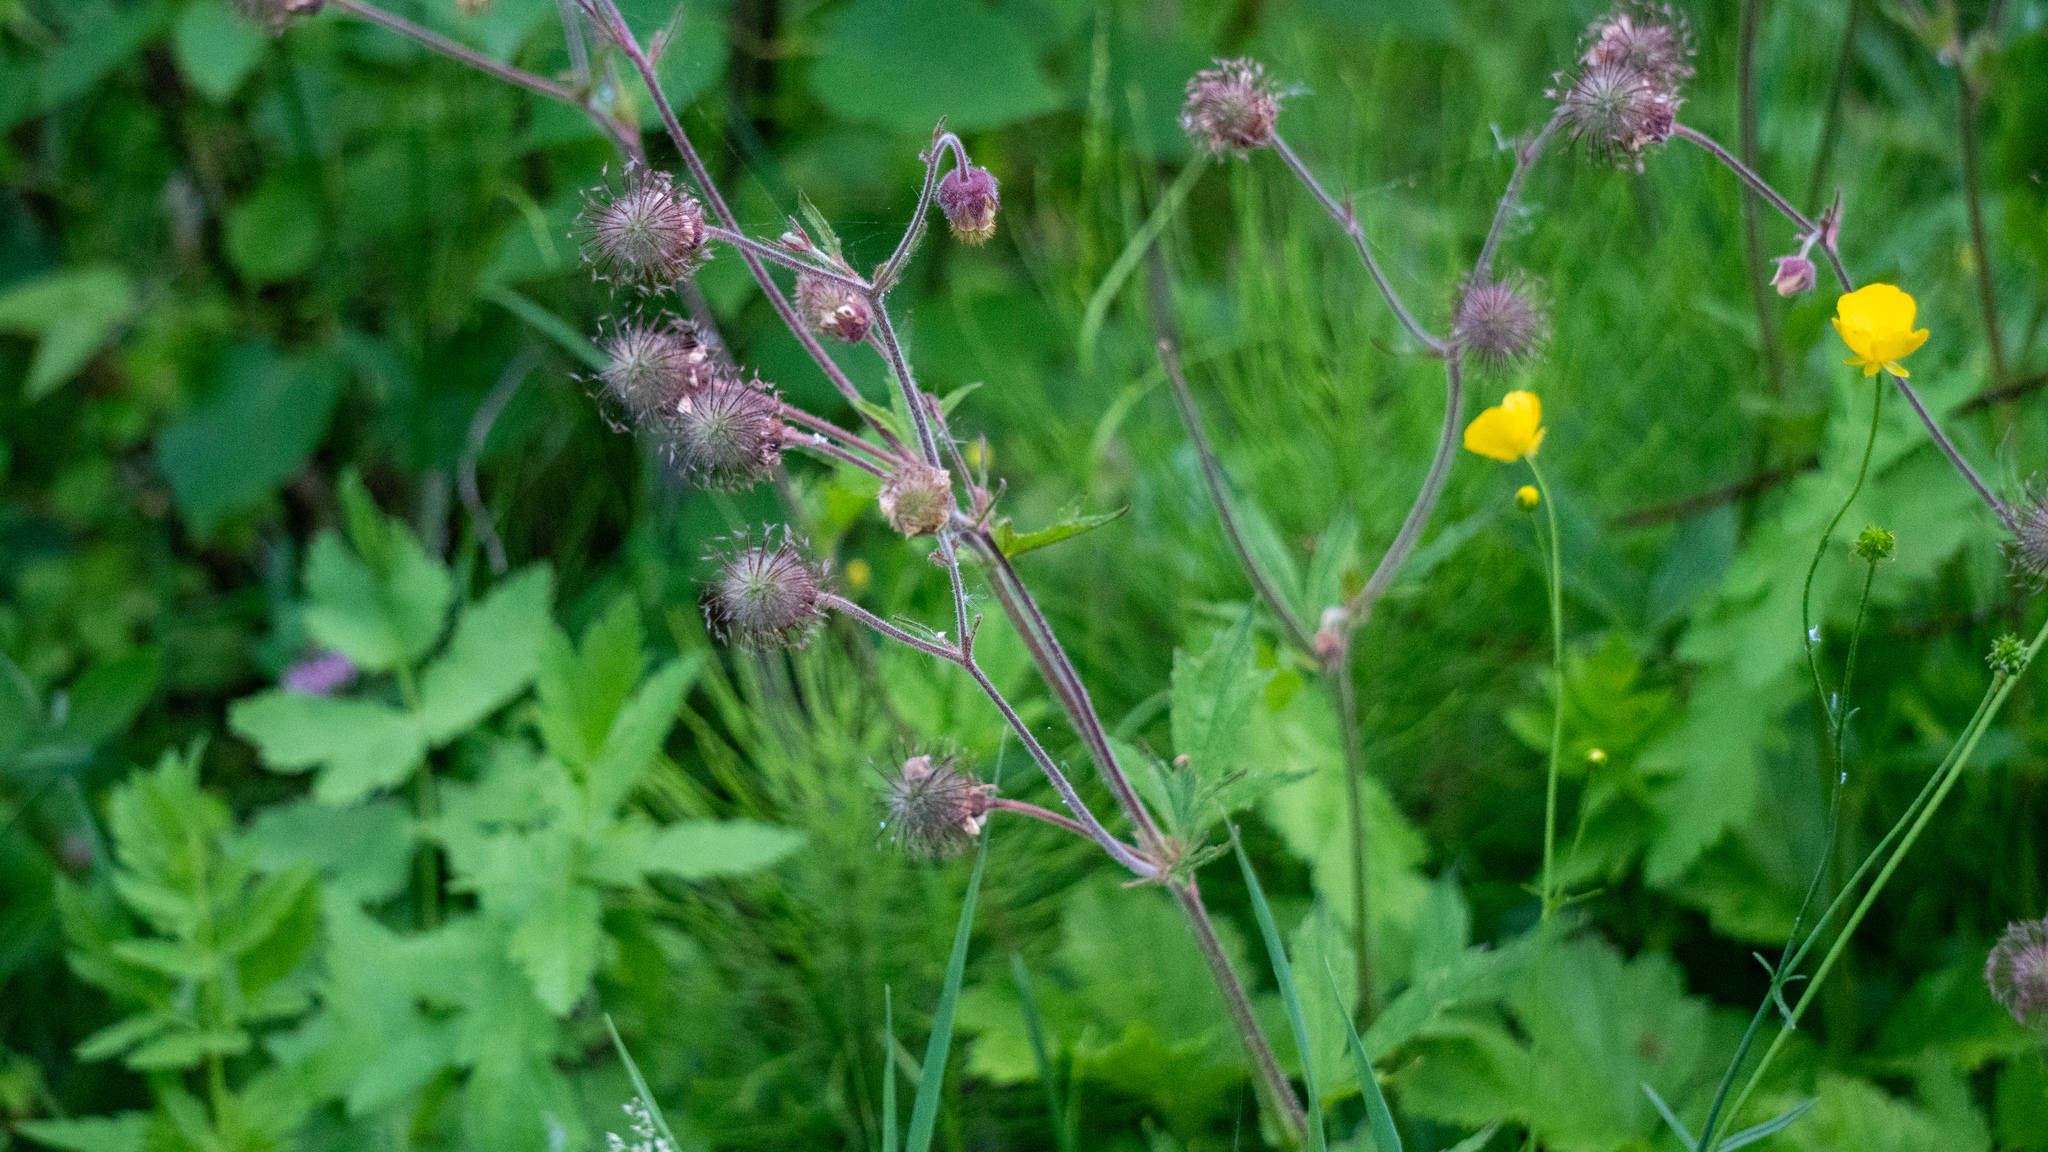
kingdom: Plantae
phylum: Tracheophyta
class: Magnoliopsida
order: Rosales
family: Rosaceae
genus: Geum
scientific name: Geum rivale
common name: Water avens
